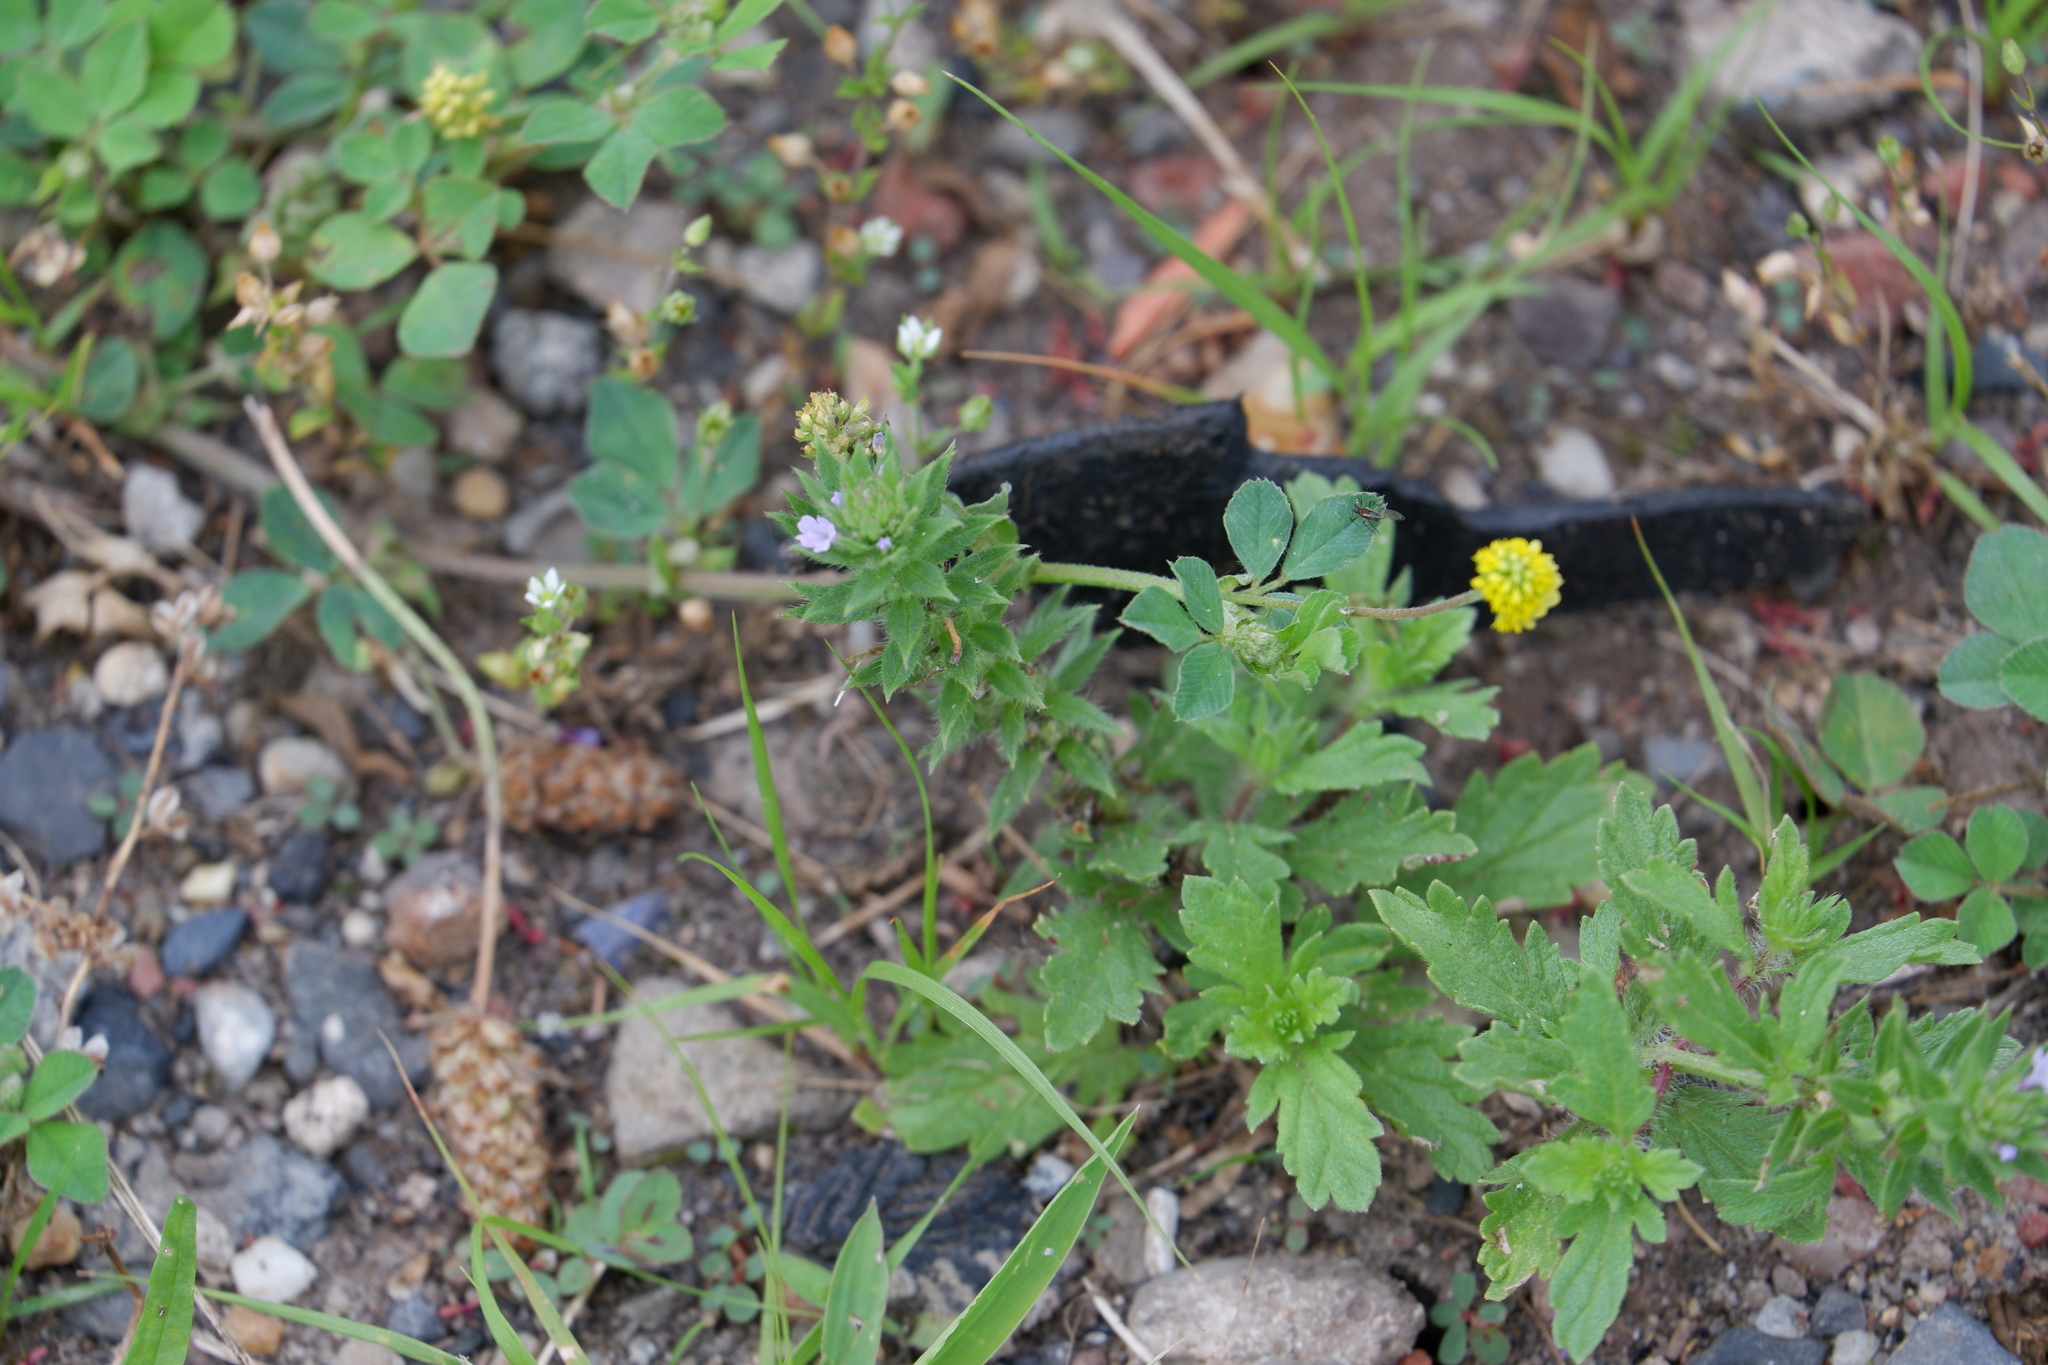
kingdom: Plantae
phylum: Tracheophyta
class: Magnoliopsida
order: Lamiales
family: Verbenaceae
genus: Verbena
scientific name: Verbena bracteata
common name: Bracted vervain
